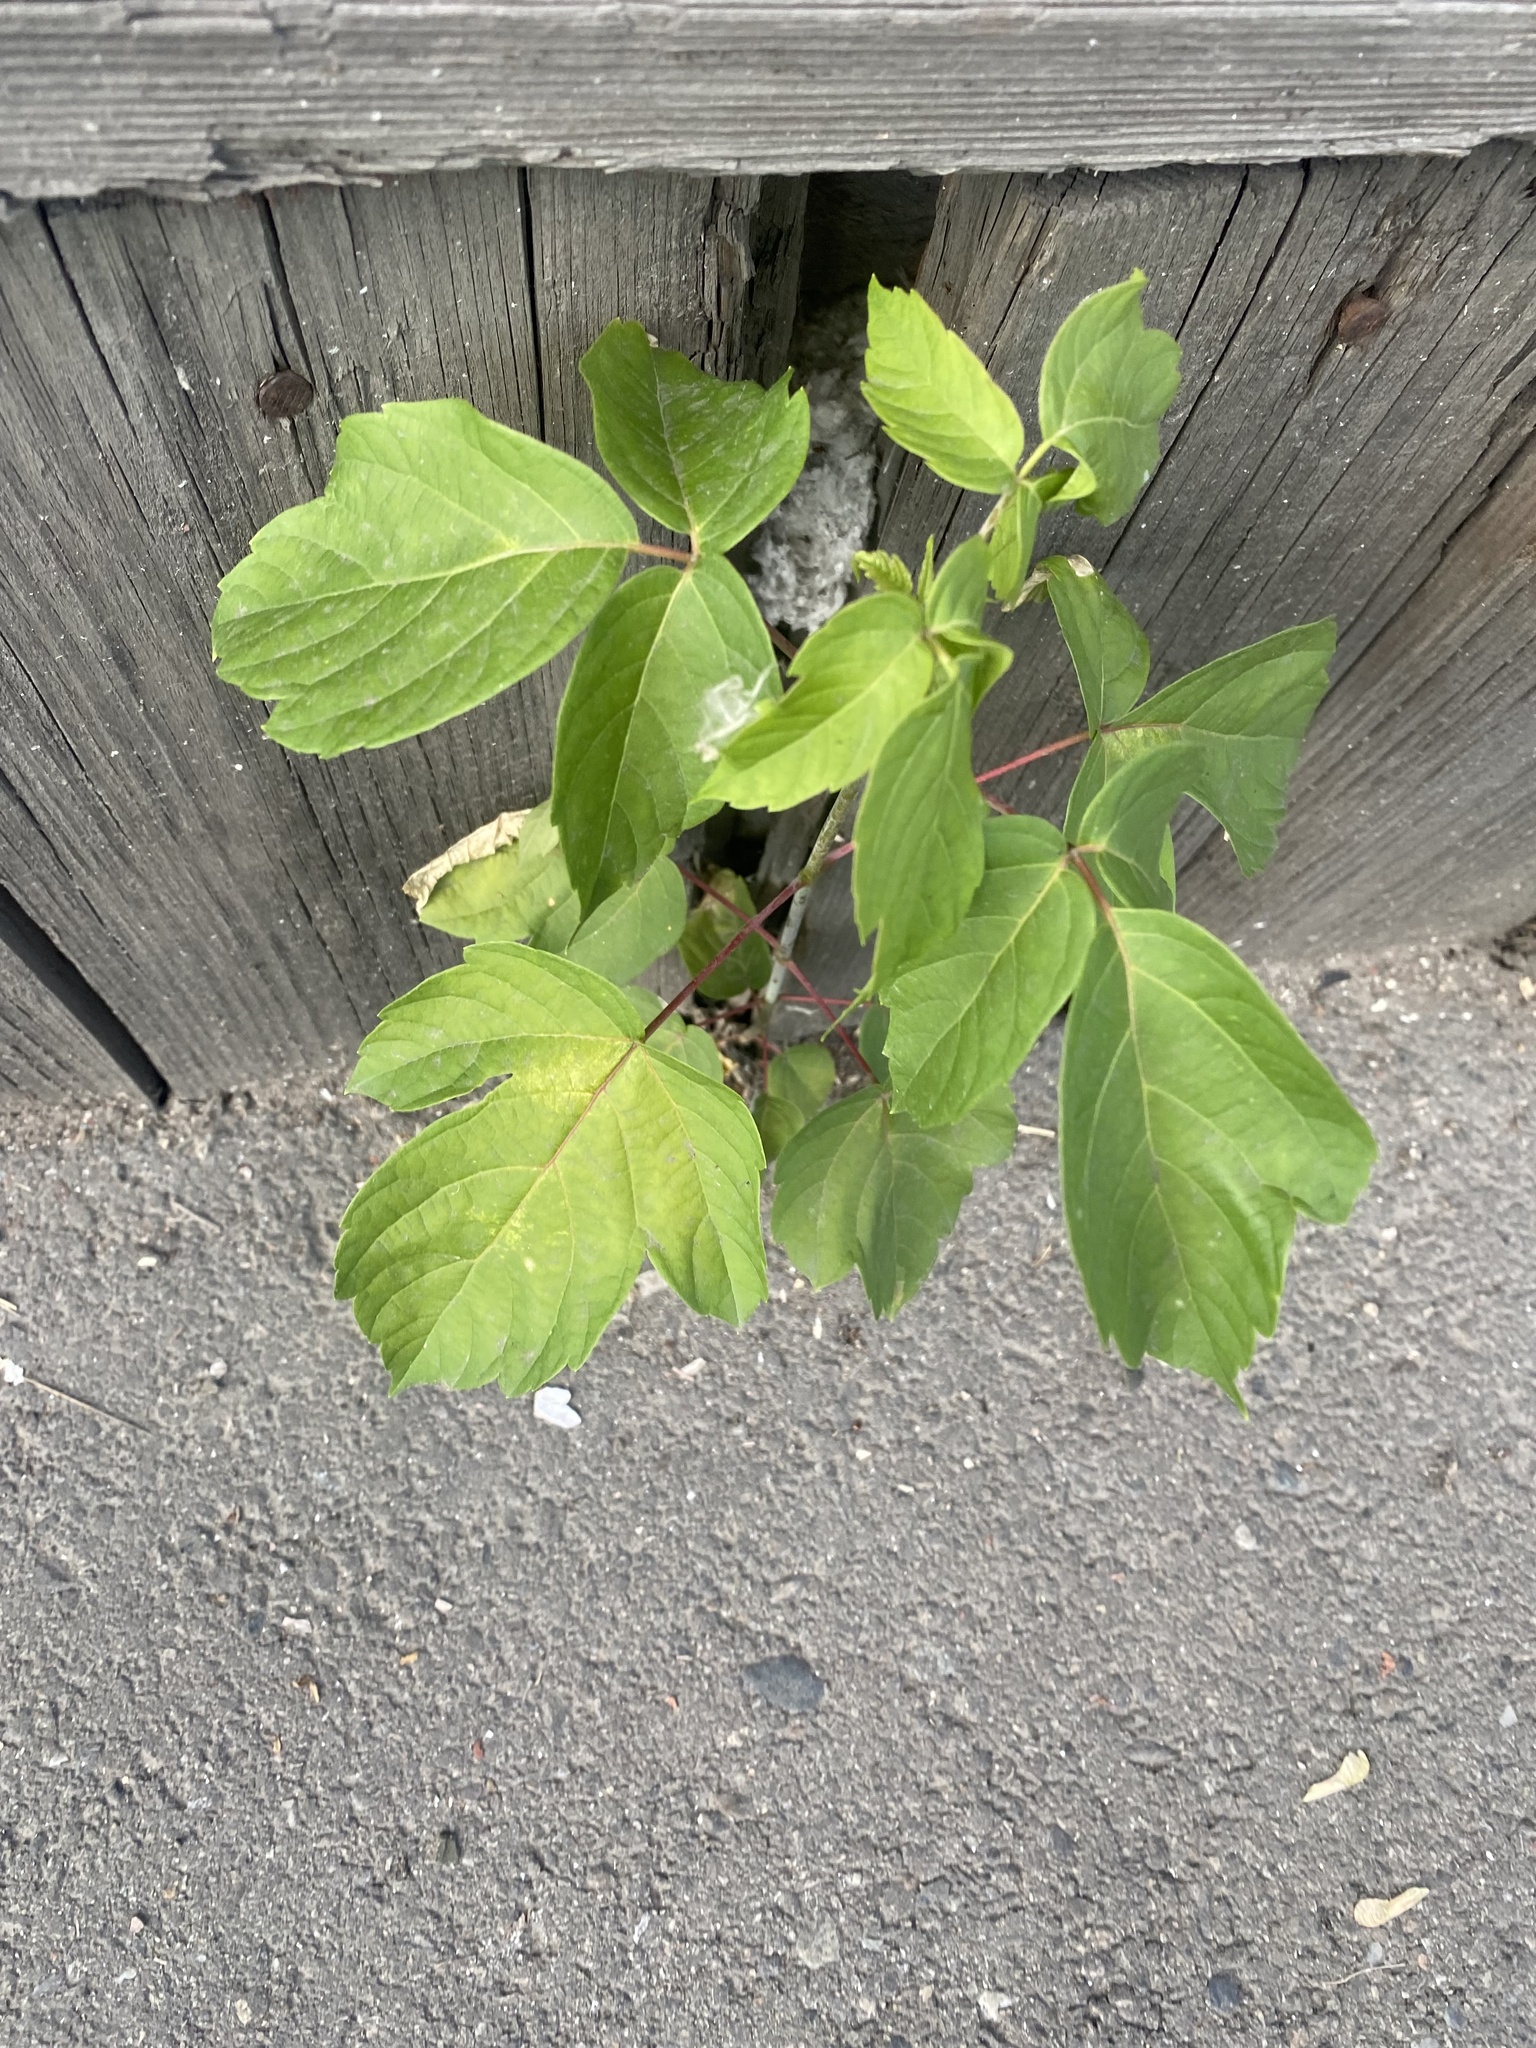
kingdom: Plantae
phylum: Tracheophyta
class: Magnoliopsida
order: Sapindales
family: Sapindaceae
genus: Acer
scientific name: Acer negundo
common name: Ashleaf maple
